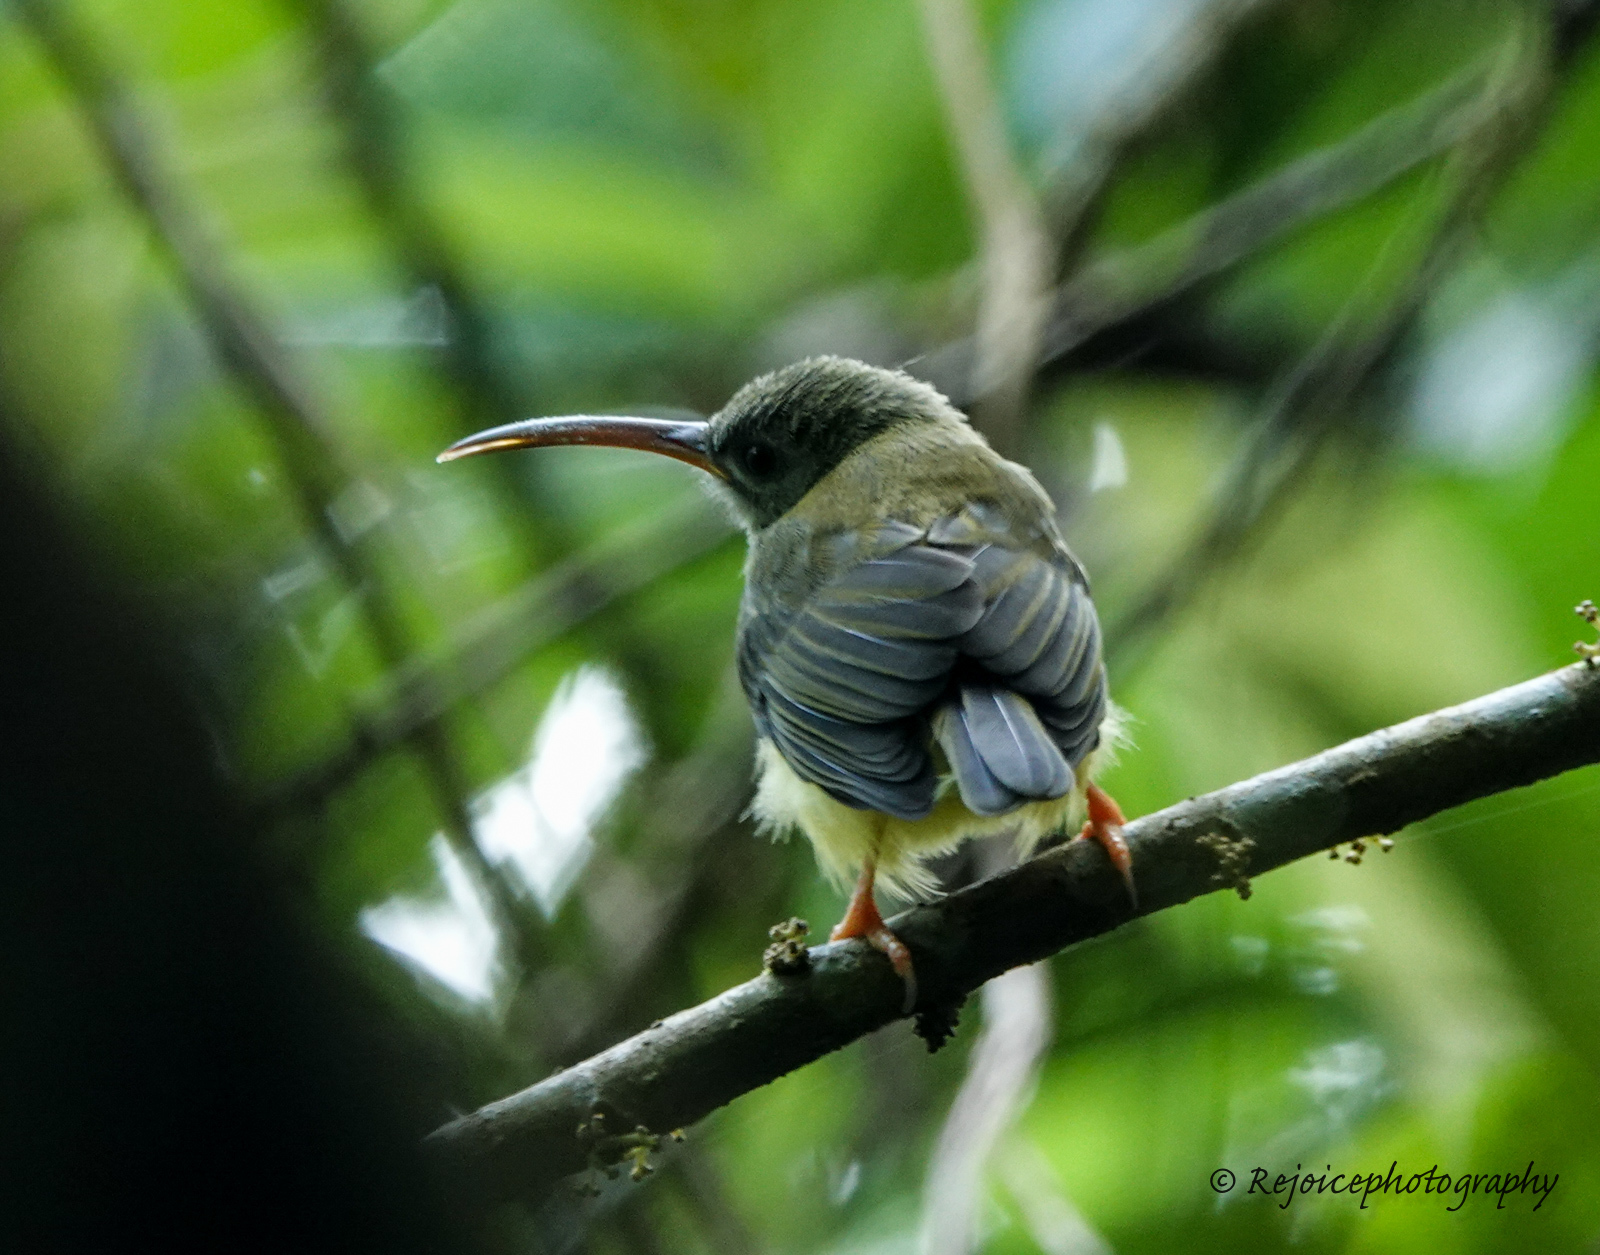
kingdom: Animalia
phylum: Chordata
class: Aves
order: Passeriformes
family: Nectariniidae
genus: Arachnothera
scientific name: Arachnothera longirostra
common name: Little spiderhunter
